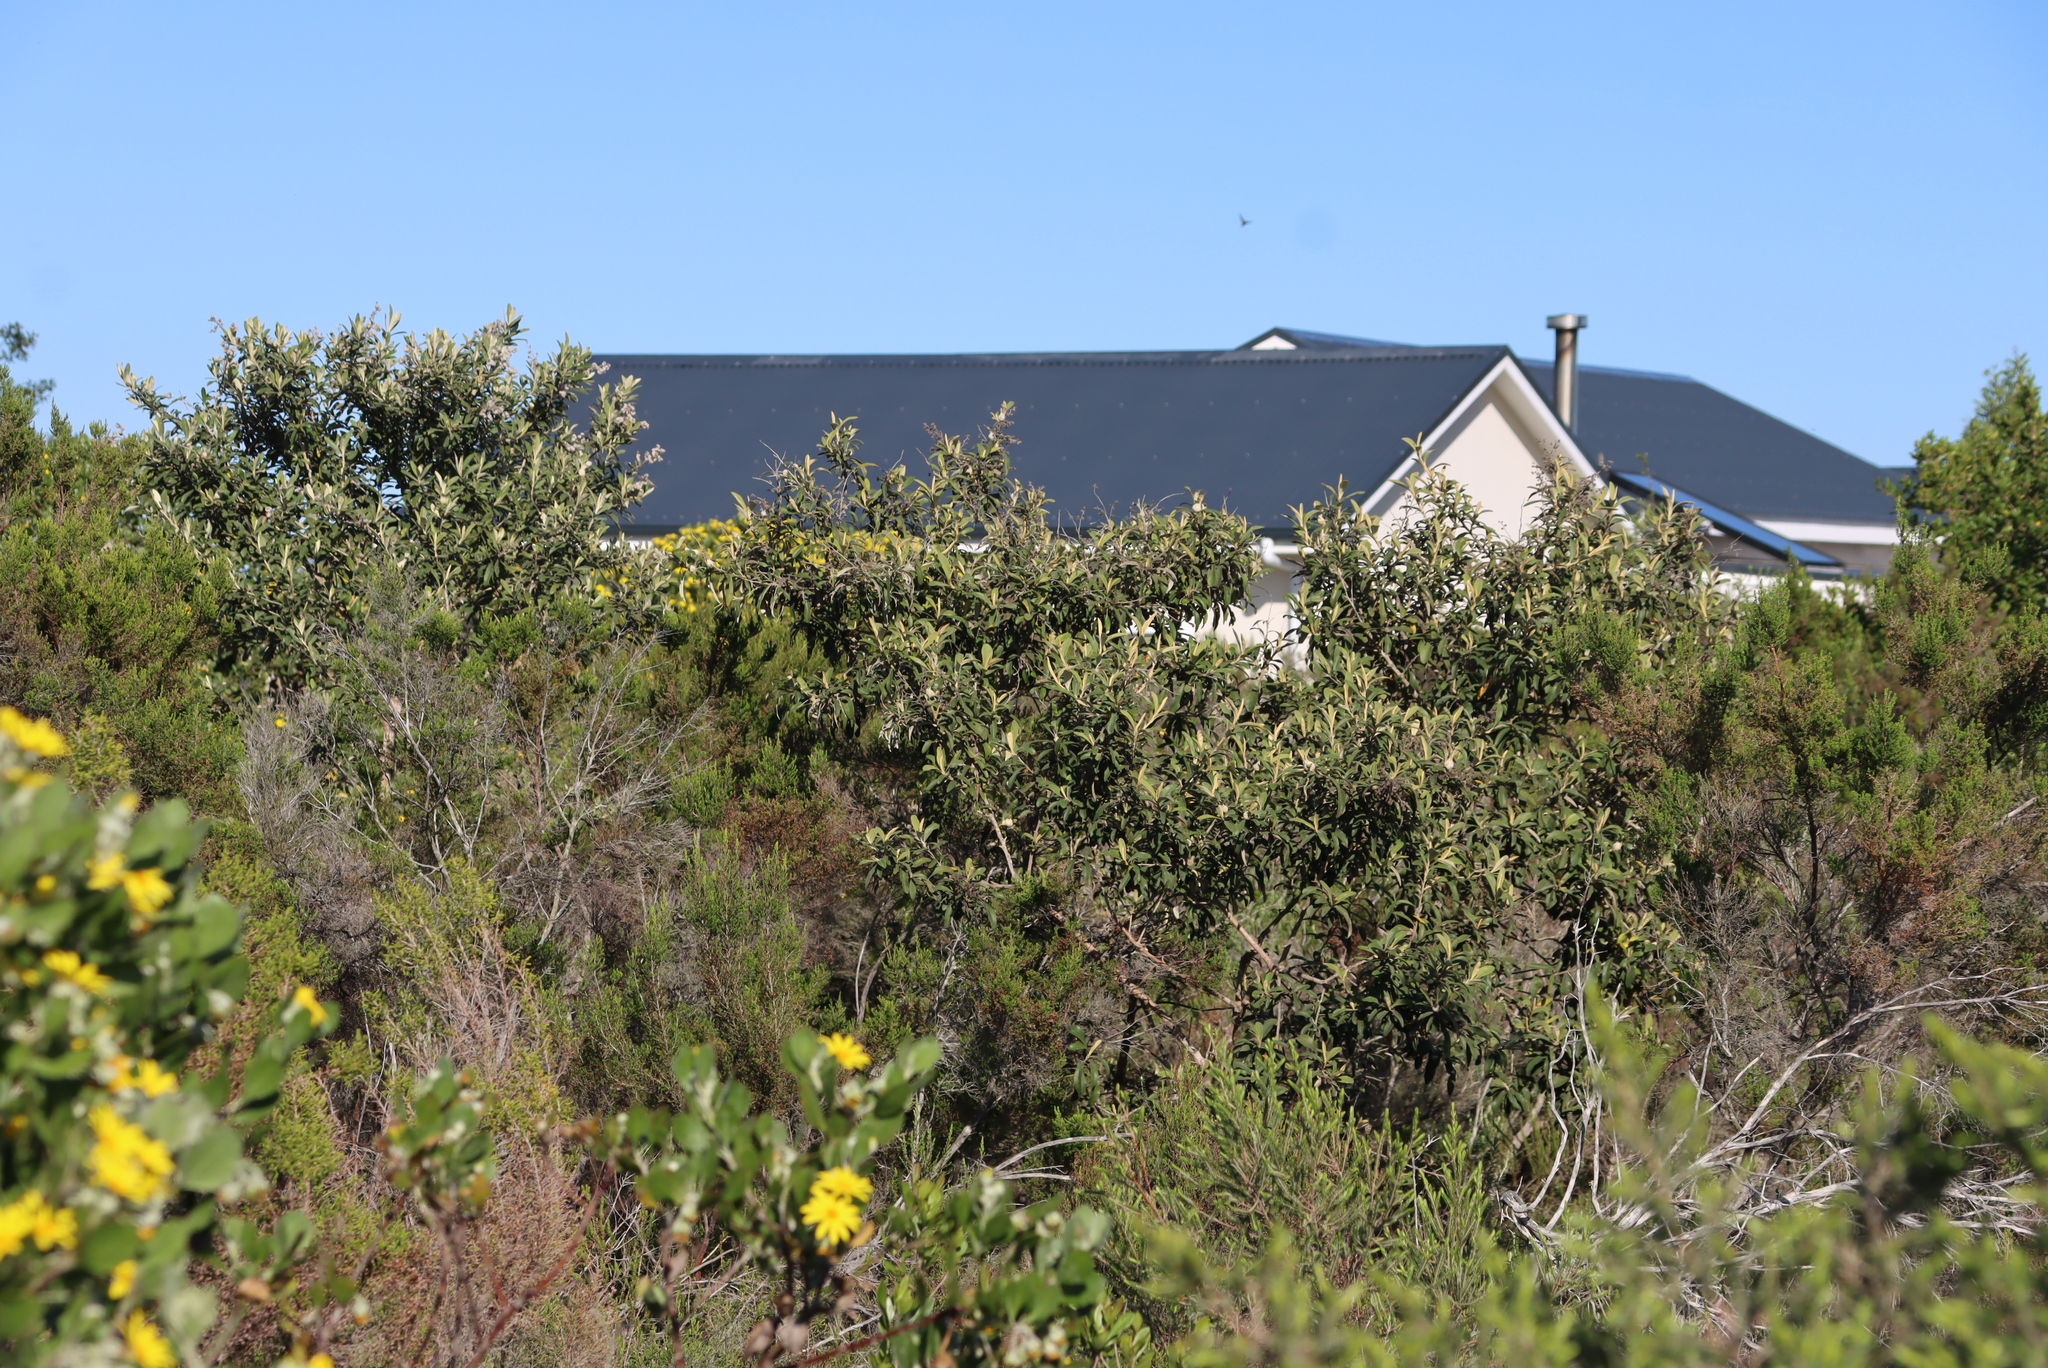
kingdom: Plantae
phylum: Tracheophyta
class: Magnoliopsida
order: Asterales
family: Asteraceae
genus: Tarchonanthus
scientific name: Tarchonanthus littoralis
